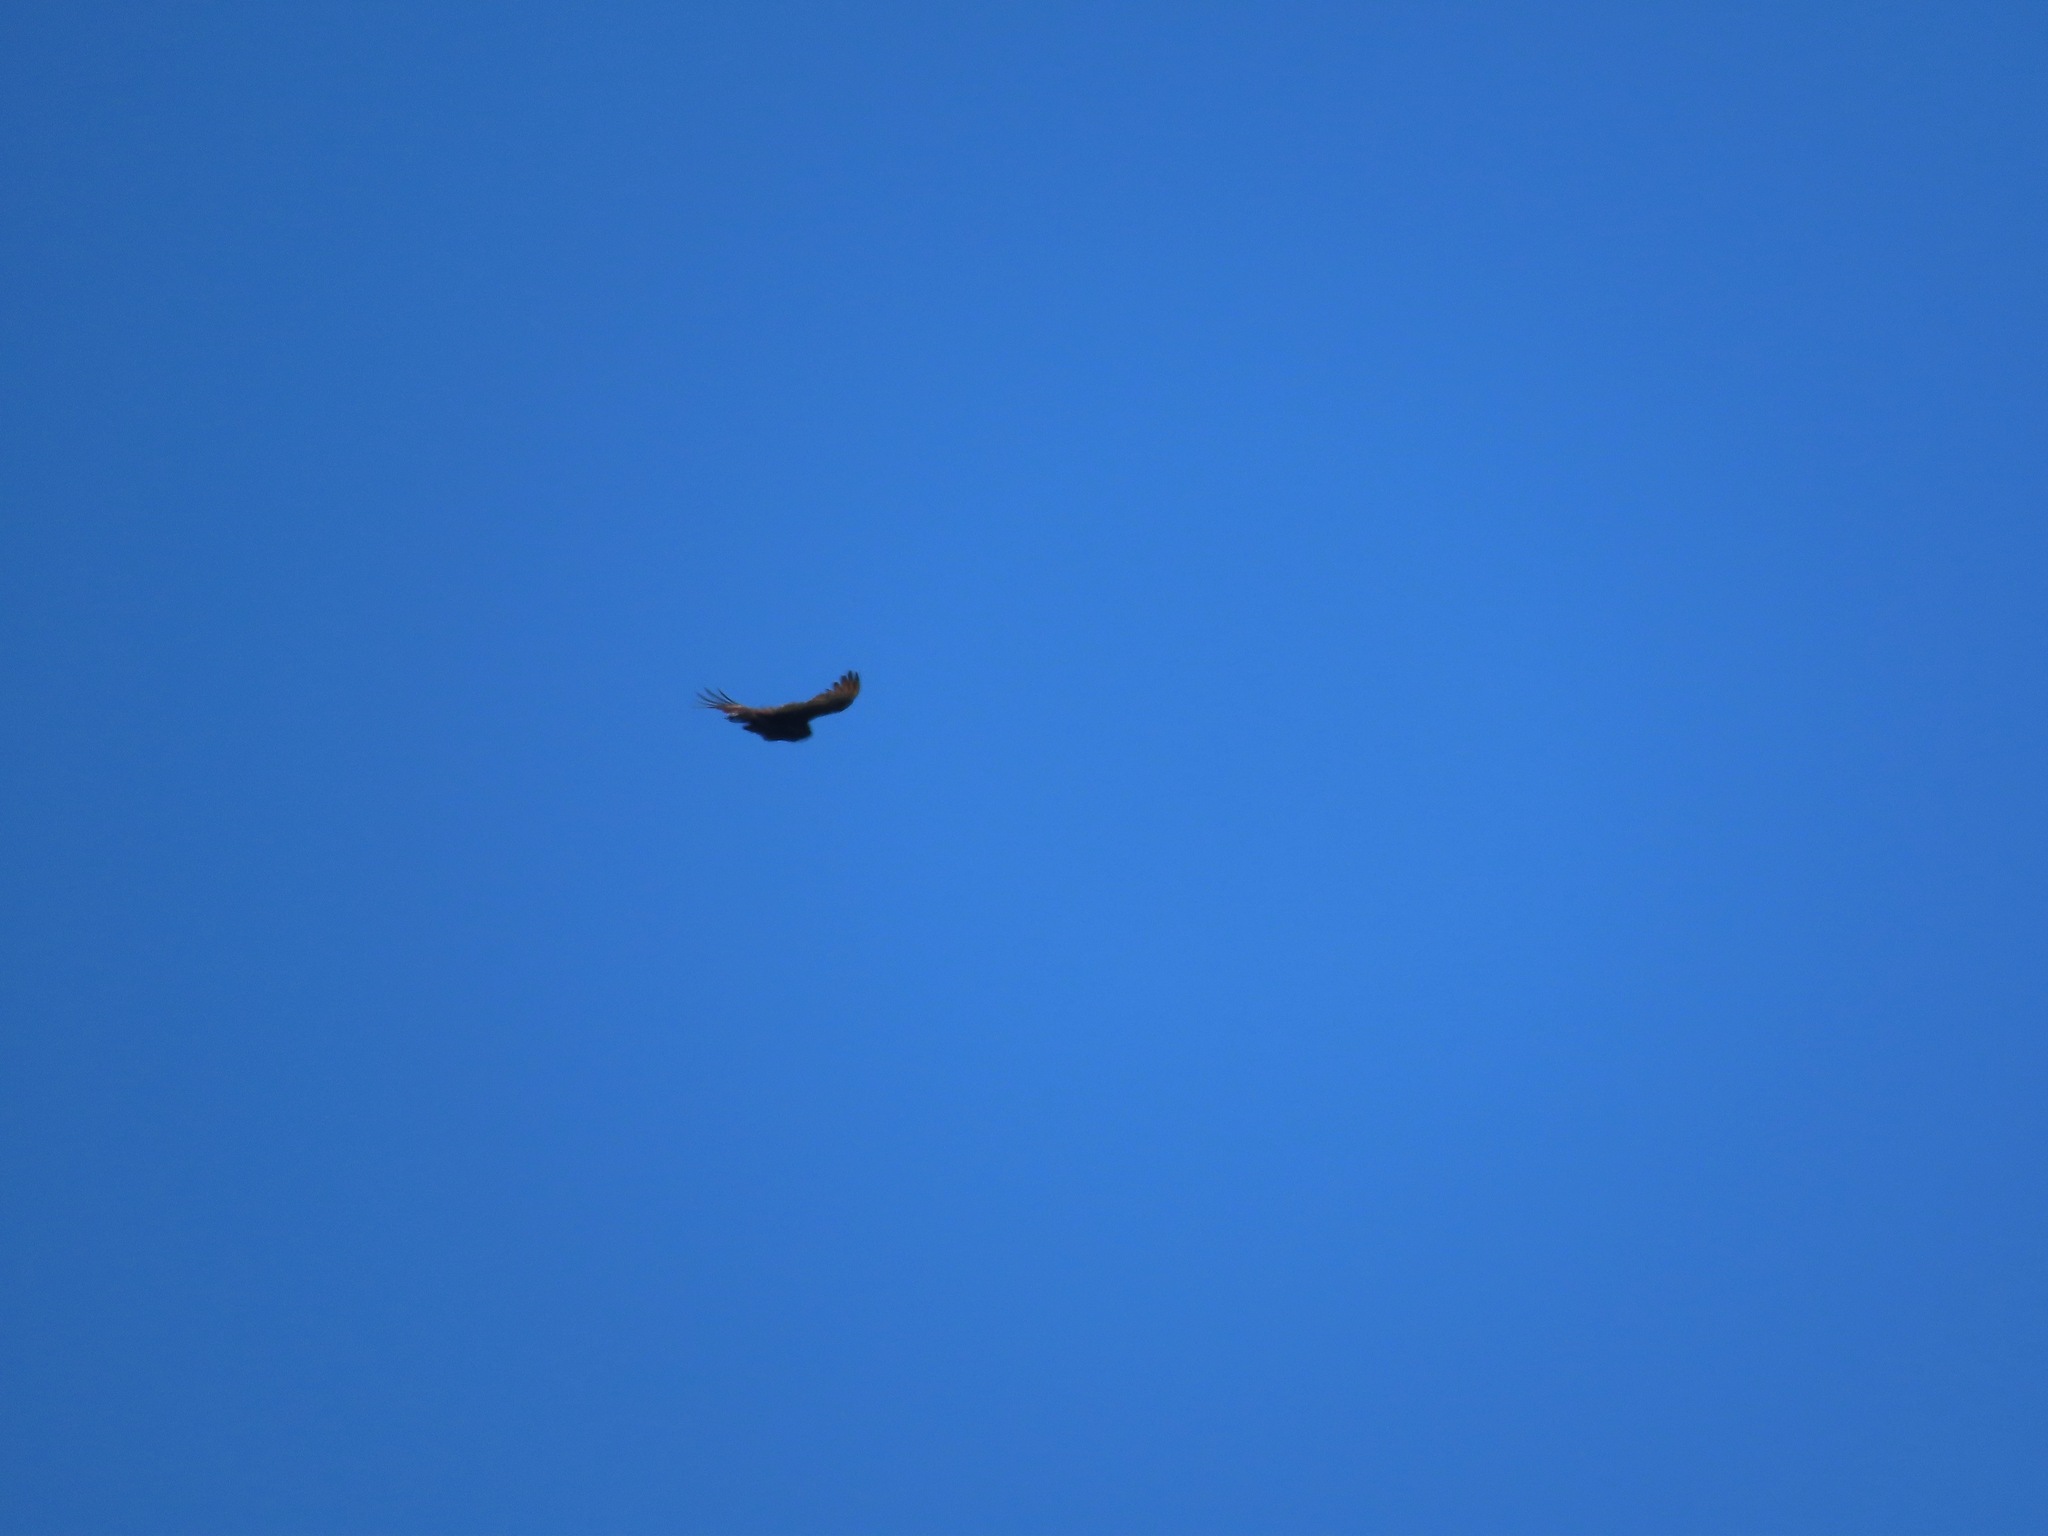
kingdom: Animalia
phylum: Chordata
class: Aves
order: Accipitriformes
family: Cathartidae
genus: Cathartes
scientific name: Cathartes aura
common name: Turkey vulture
